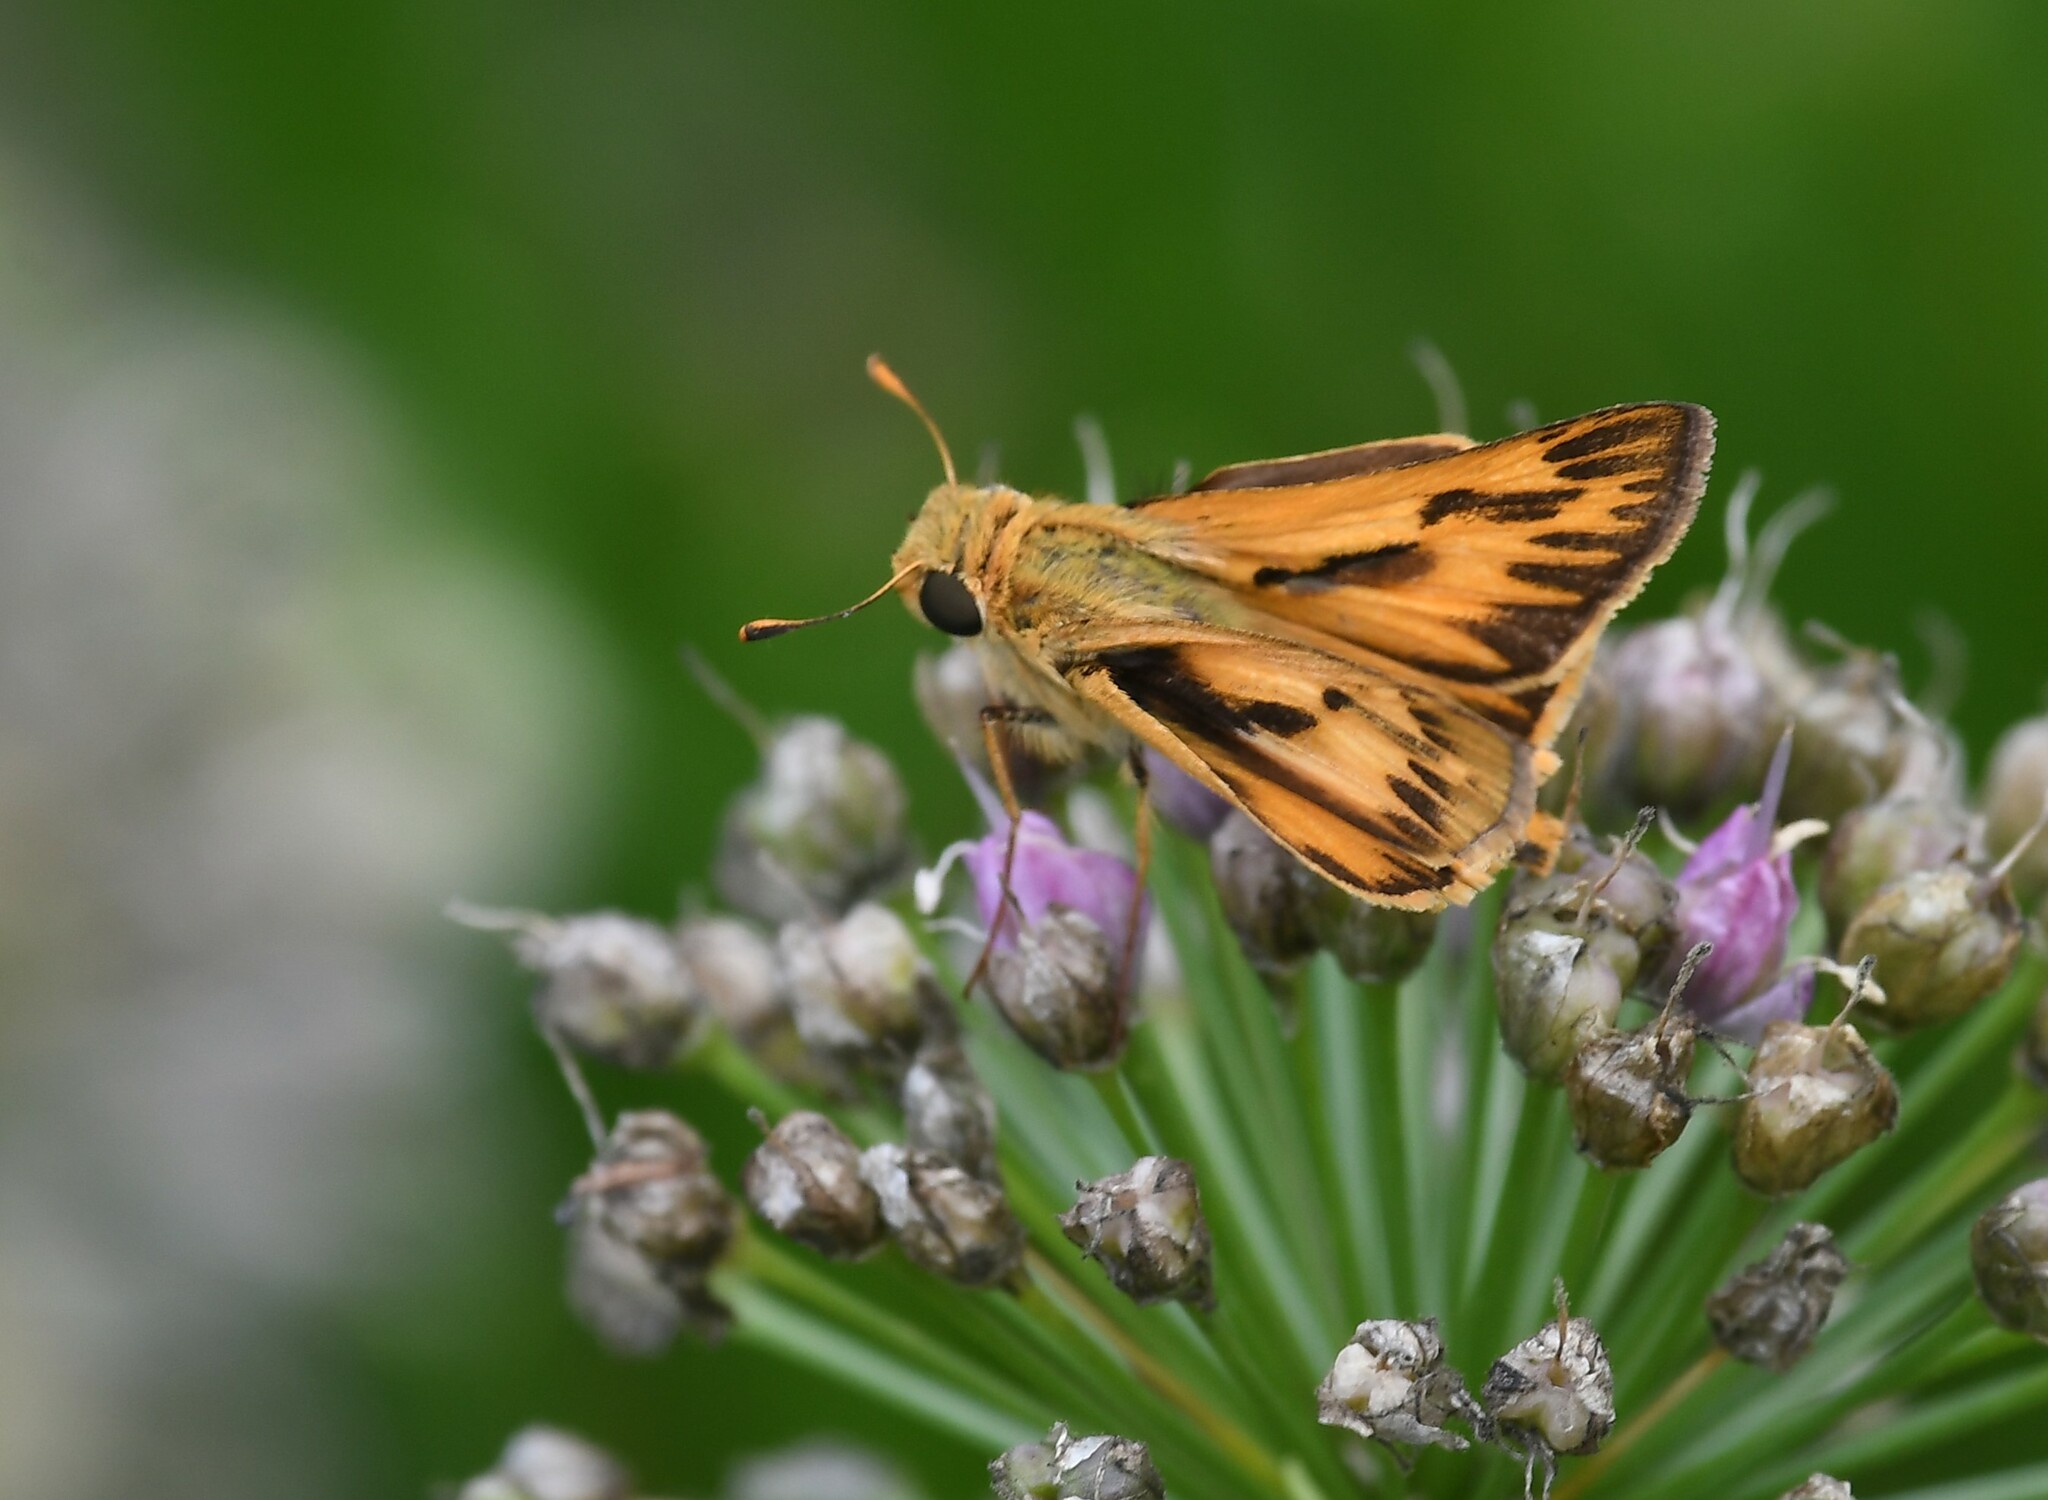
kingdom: Animalia
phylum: Arthropoda
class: Insecta
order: Lepidoptera
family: Hesperiidae
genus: Hylephila
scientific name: Hylephila phyleus
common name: Fiery skipper
